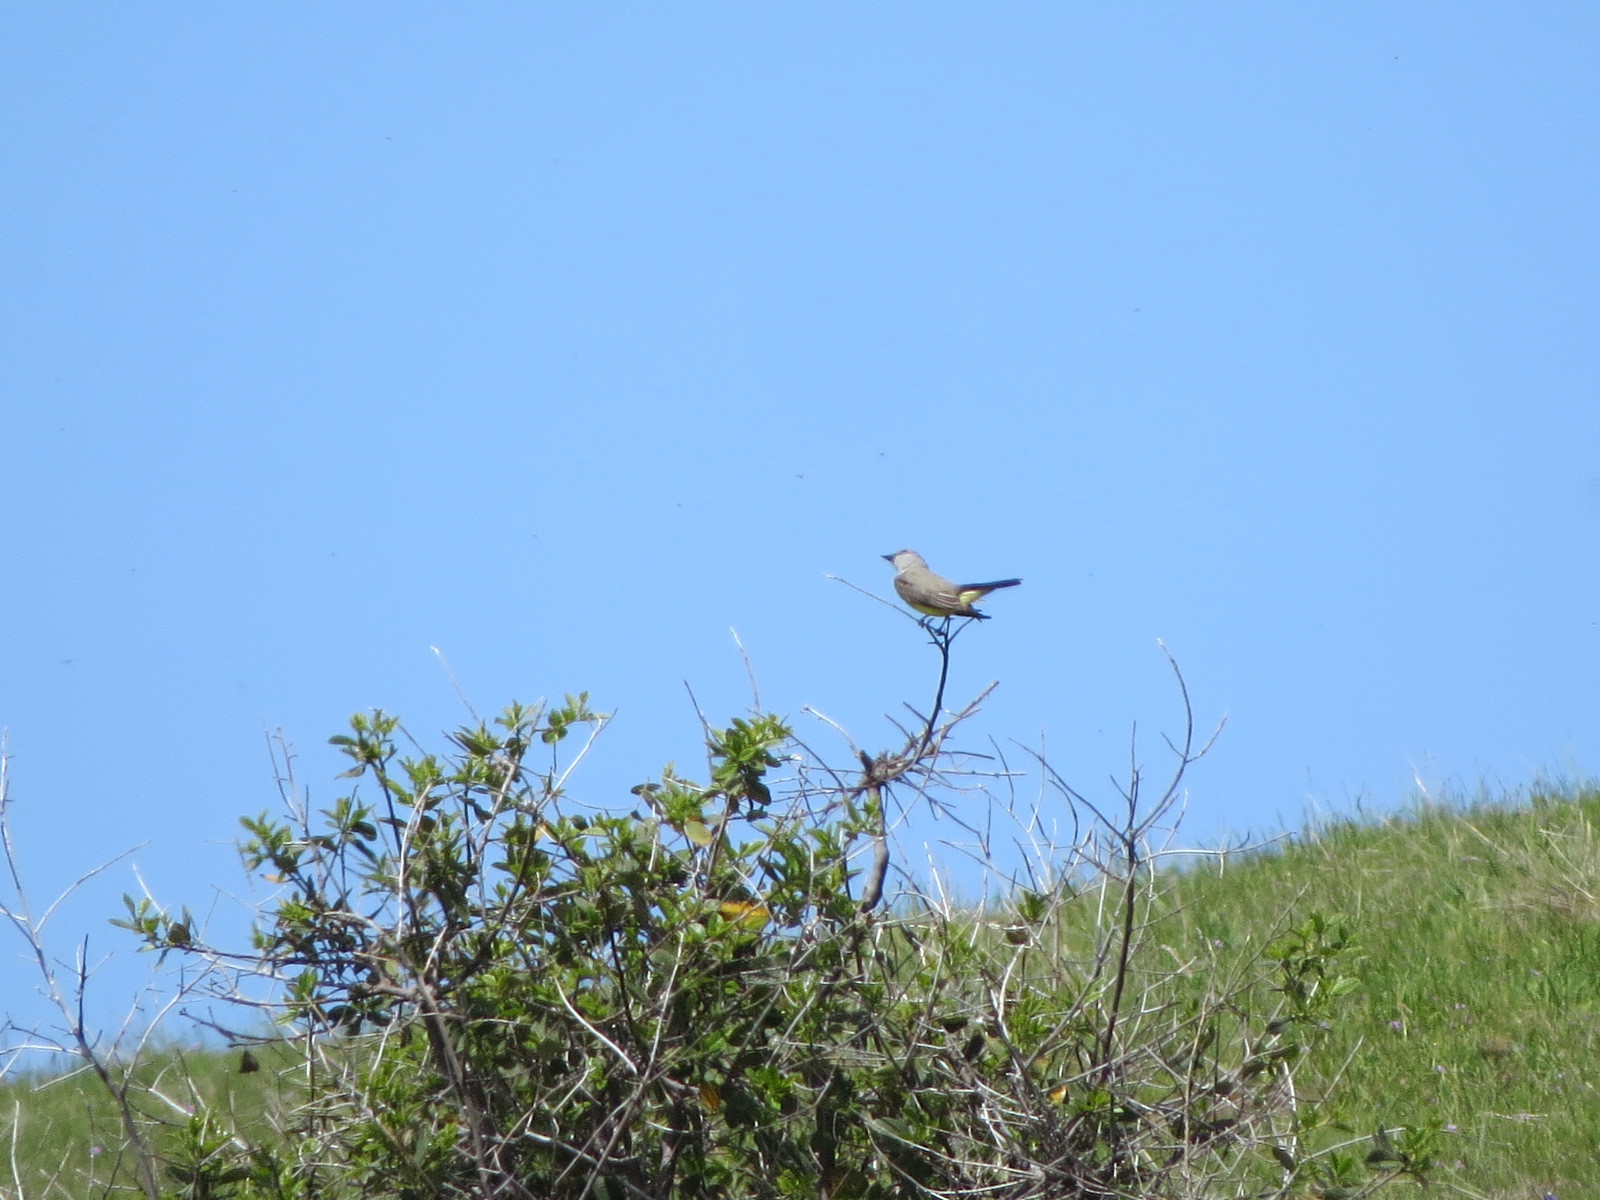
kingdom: Animalia
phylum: Chordata
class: Aves
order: Passeriformes
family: Tyrannidae
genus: Tyrannus
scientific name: Tyrannus verticalis
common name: Western kingbird
